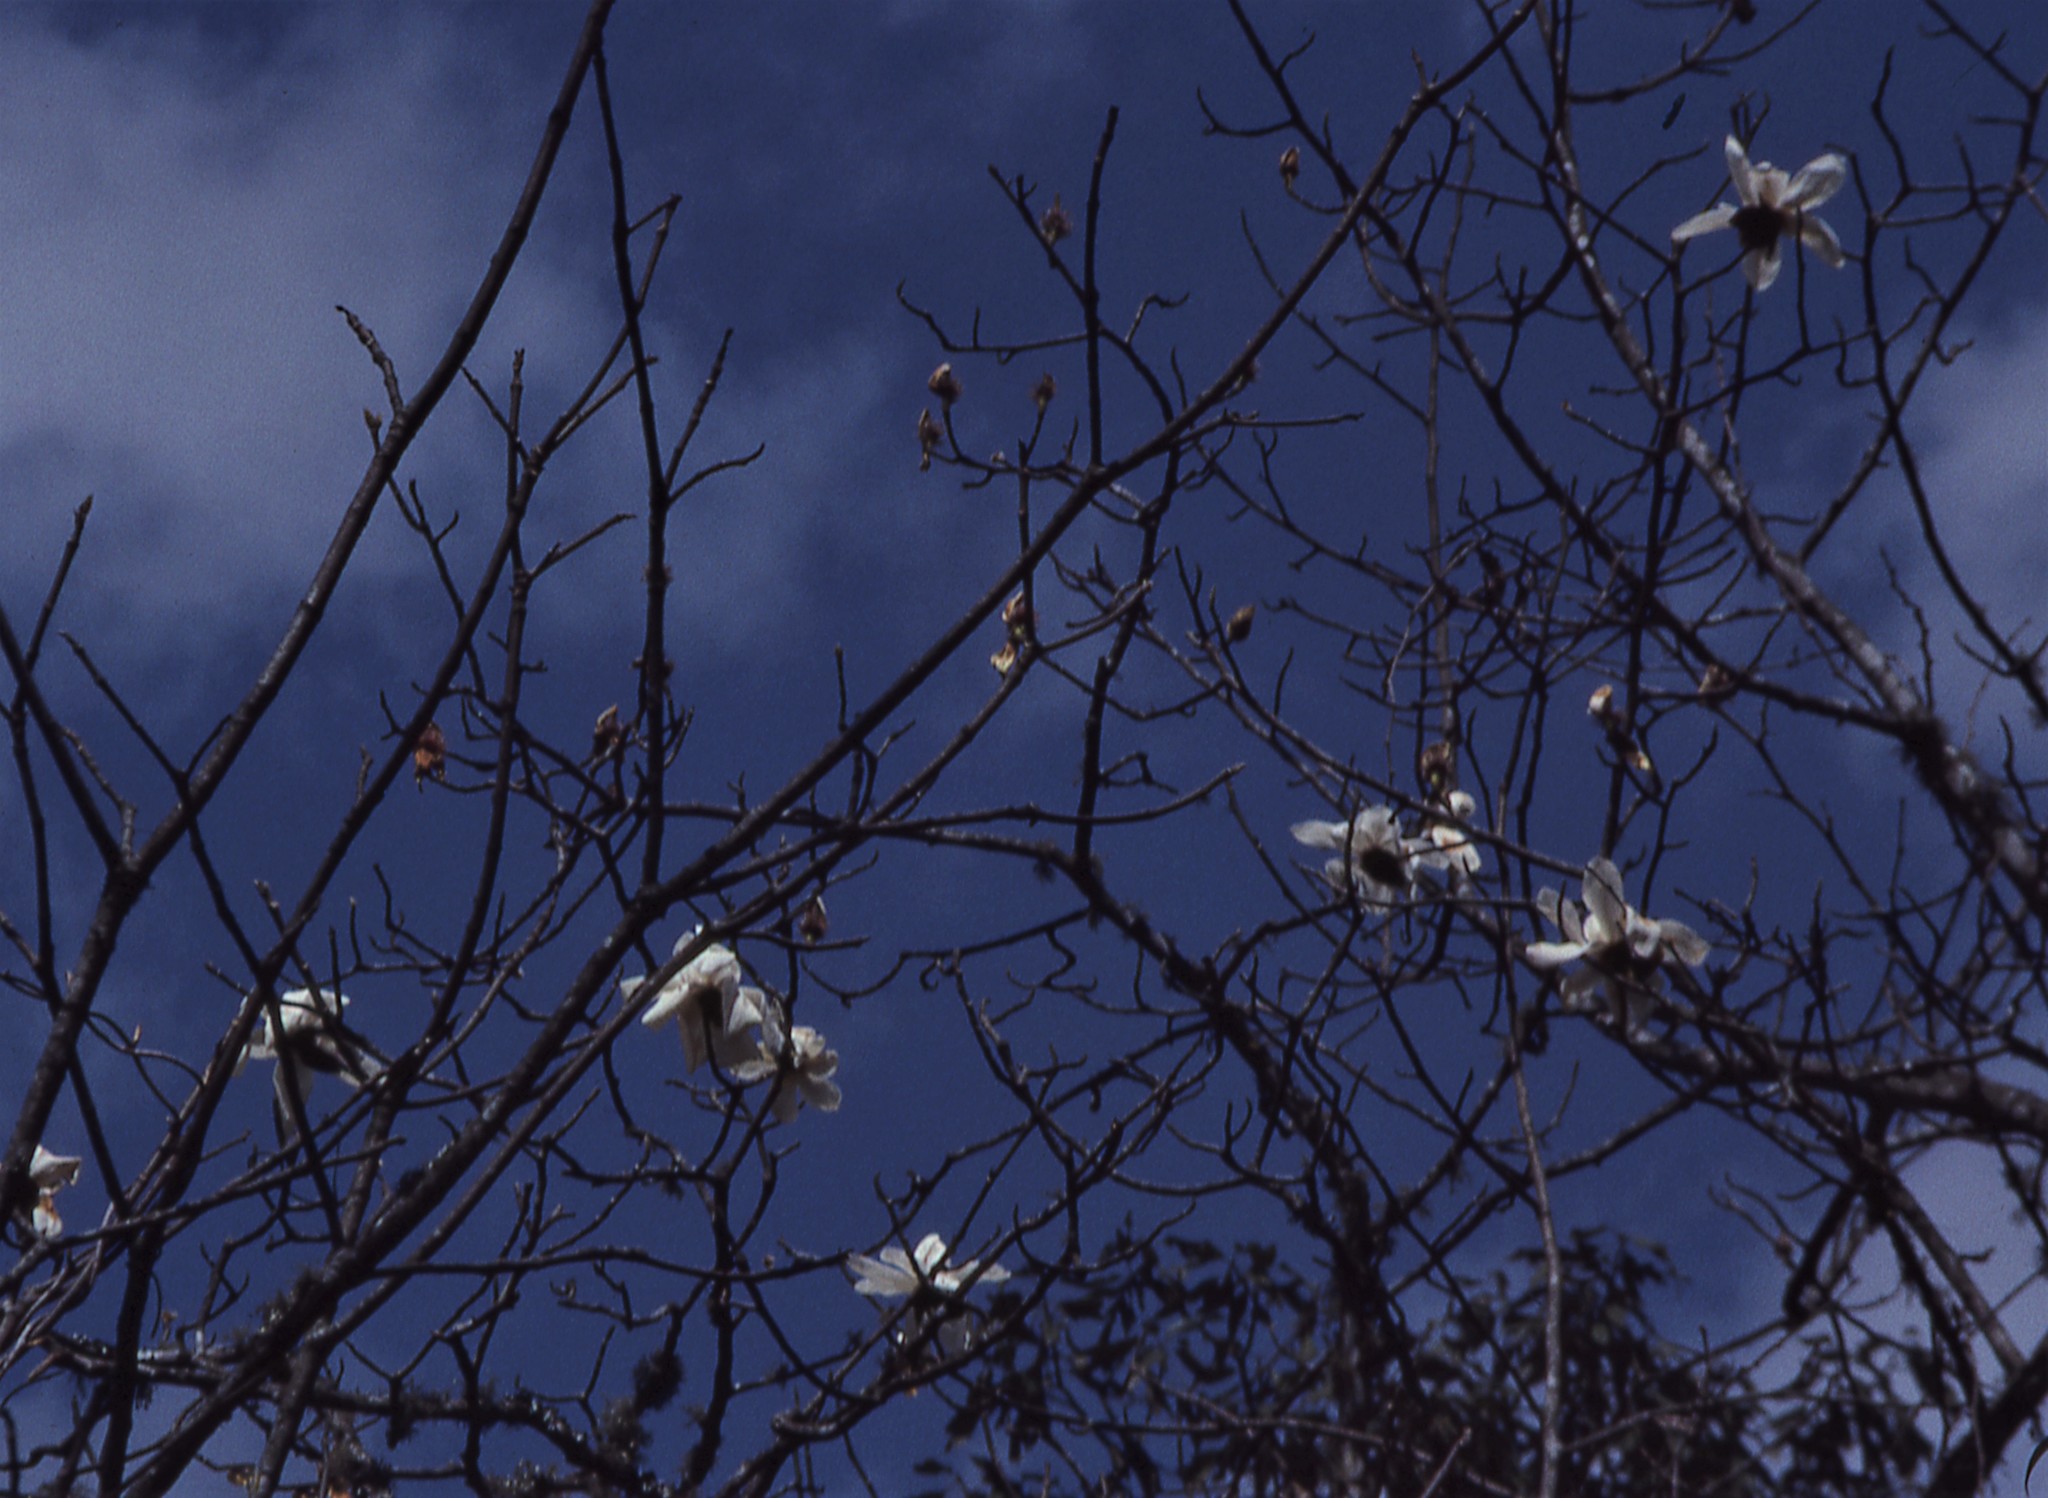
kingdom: Plantae
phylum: Tracheophyta
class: Magnoliopsida
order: Magnoliales
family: Magnoliaceae
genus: Magnolia
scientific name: Magnolia campbellii
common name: Campbell's magnolia
